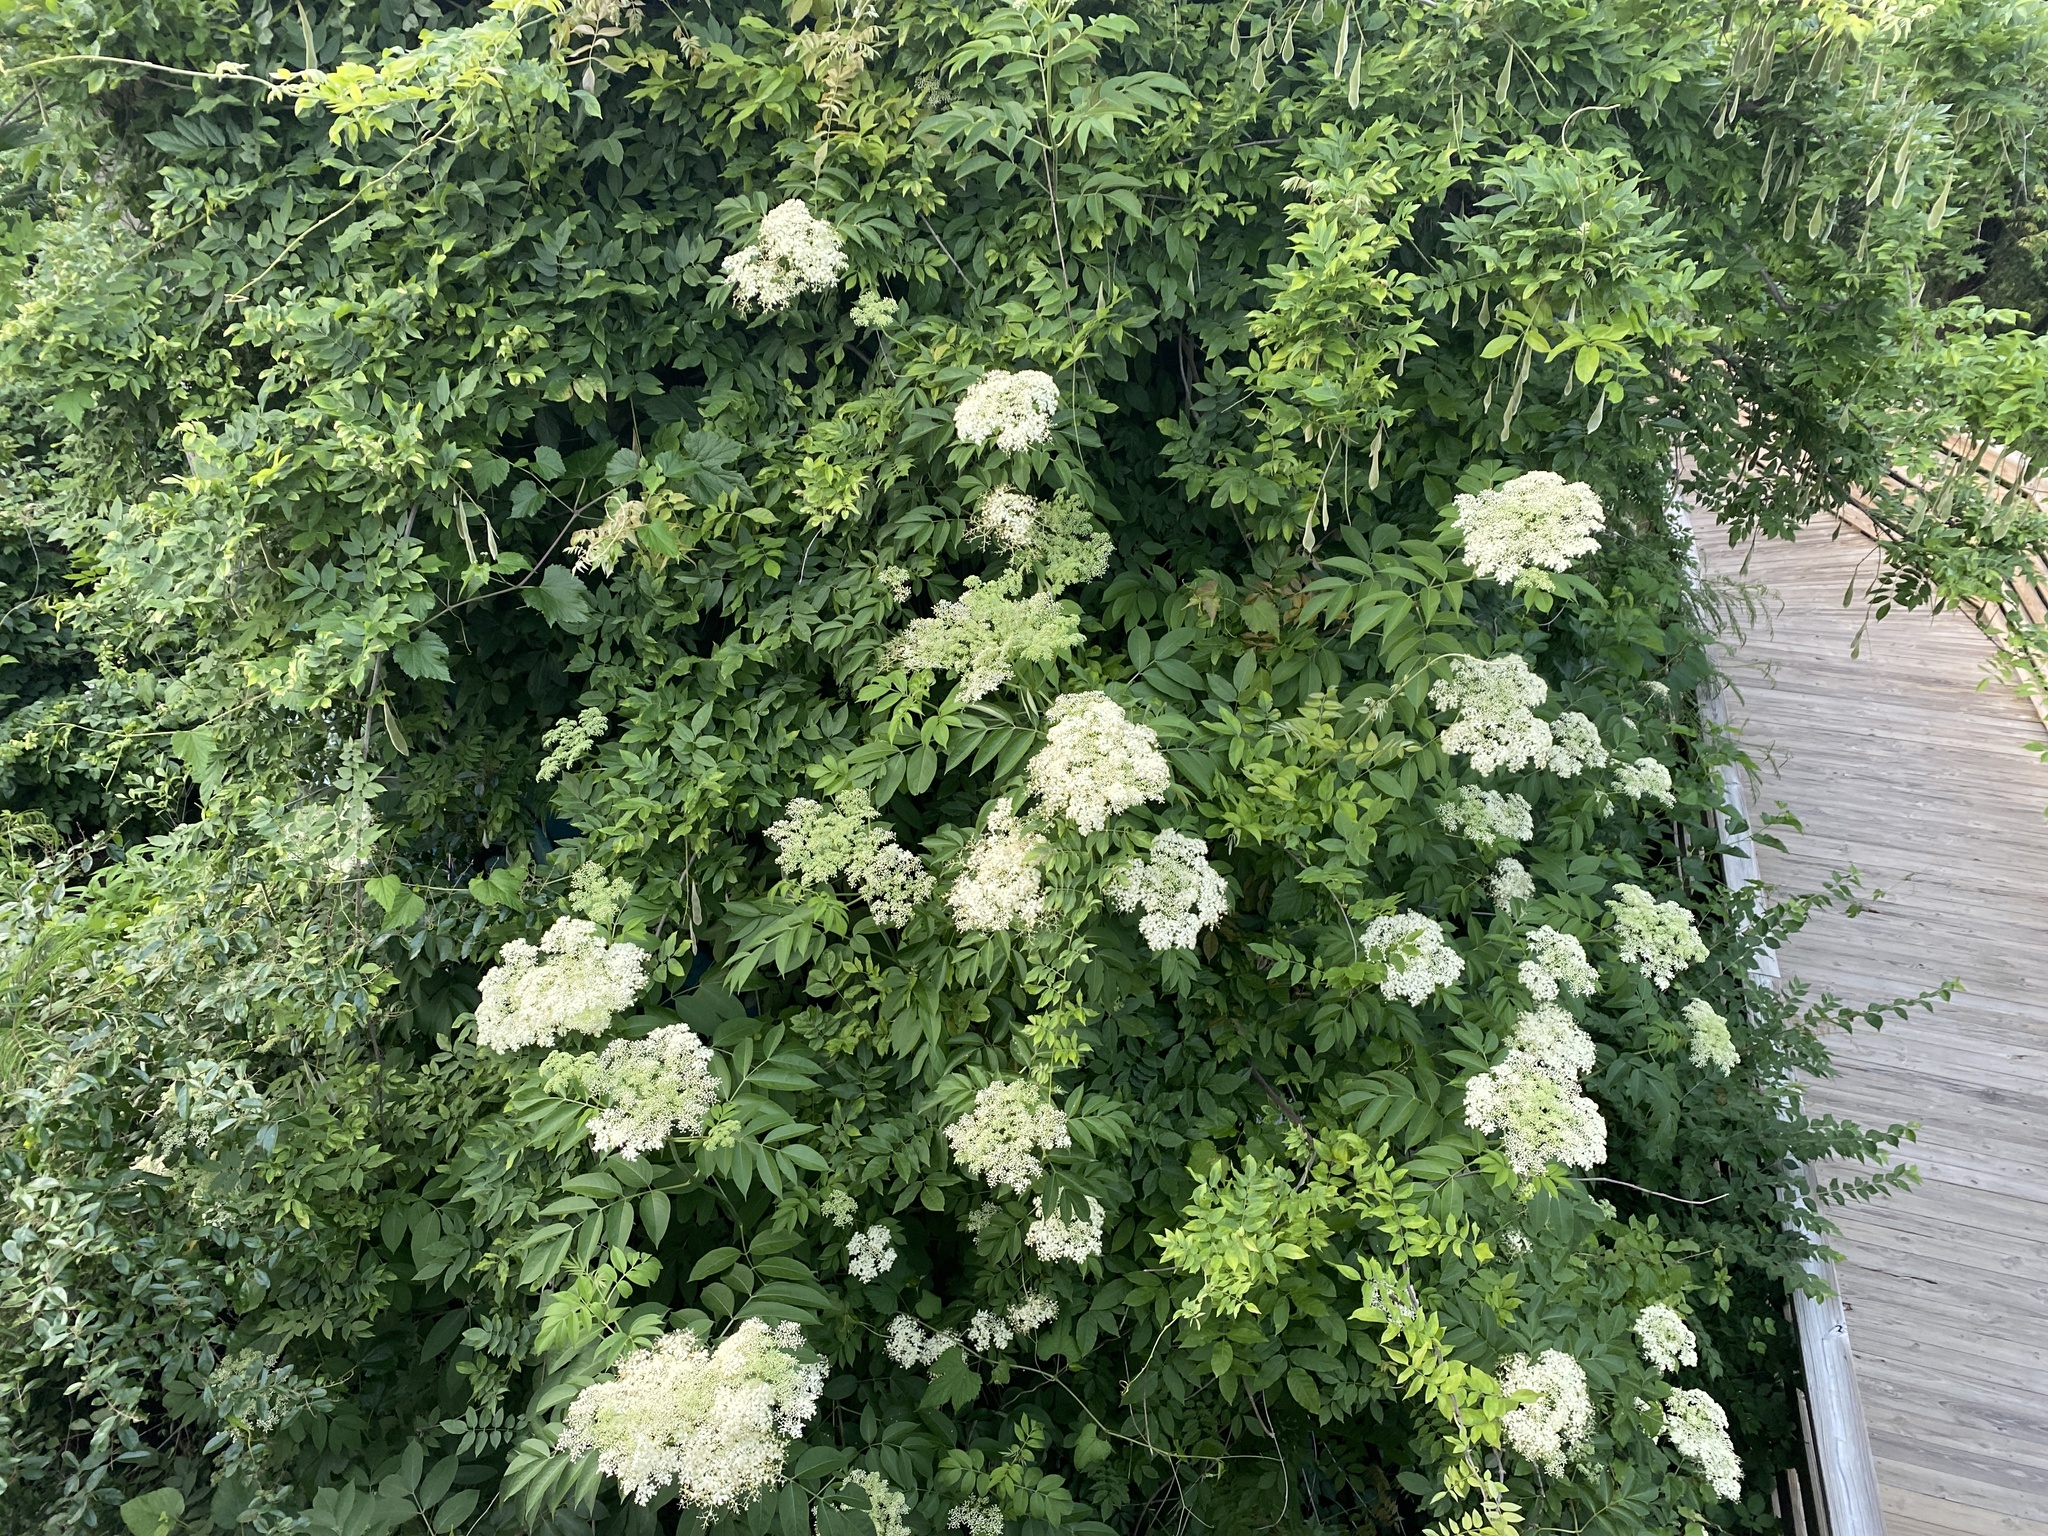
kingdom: Plantae
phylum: Tracheophyta
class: Magnoliopsida
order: Dipsacales
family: Viburnaceae
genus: Sambucus
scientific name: Sambucus canadensis
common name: American elder
